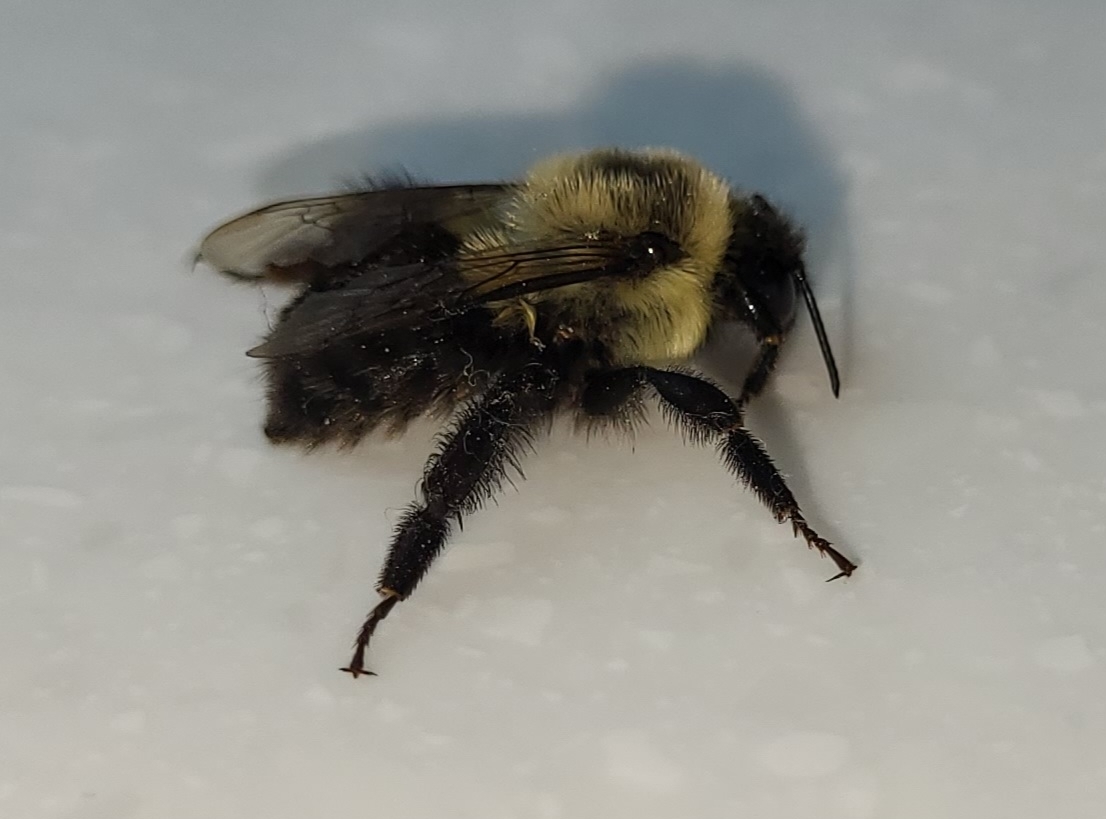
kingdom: Animalia
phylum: Arthropoda
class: Insecta
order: Hymenoptera
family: Apidae
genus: Bombus
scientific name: Bombus impatiens
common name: Common eastern bumble bee
